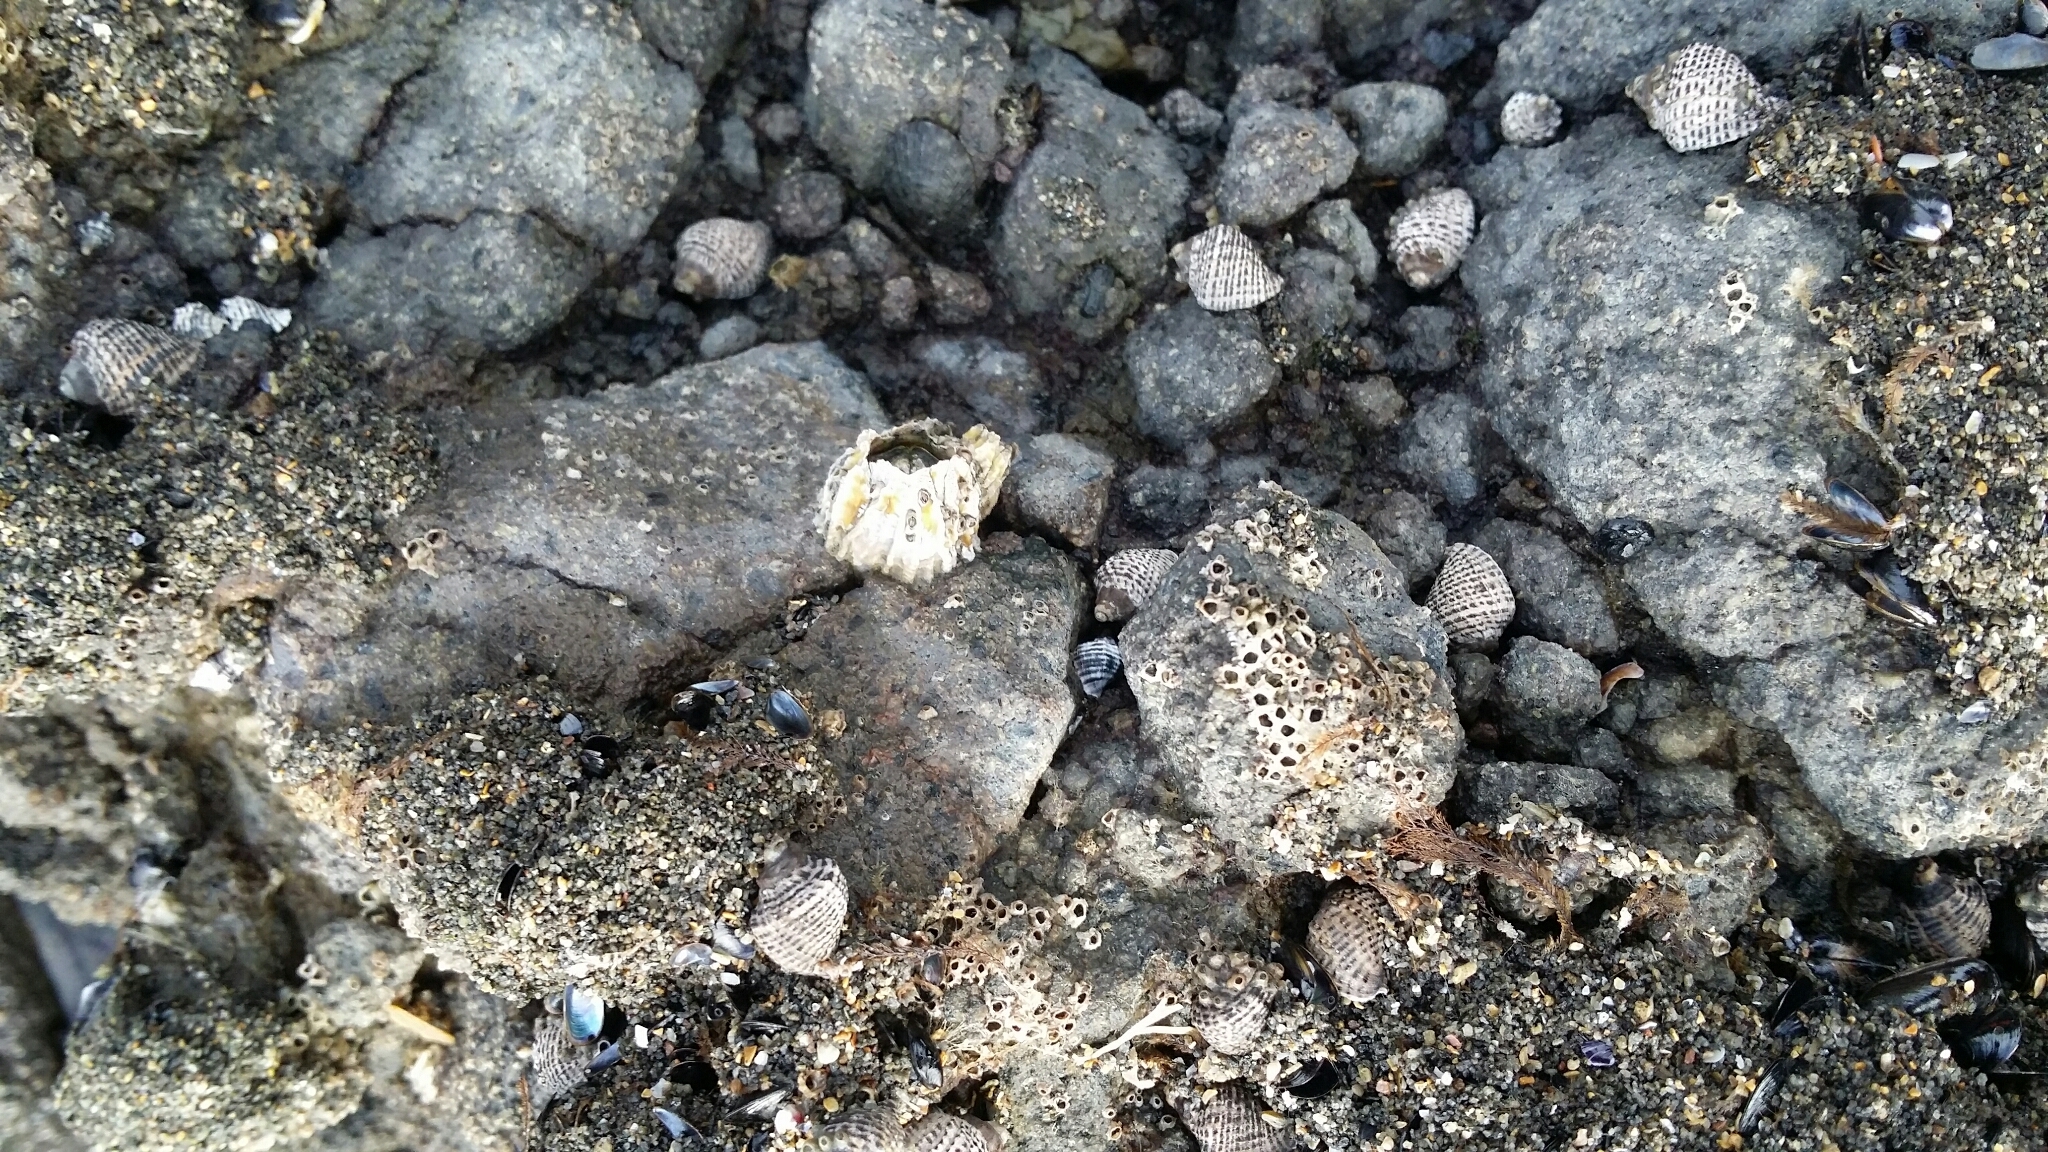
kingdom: Animalia
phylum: Arthropoda
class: Maxillopoda
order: Sessilia
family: Tetraclitidae
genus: Epopella
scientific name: Epopella plicata
